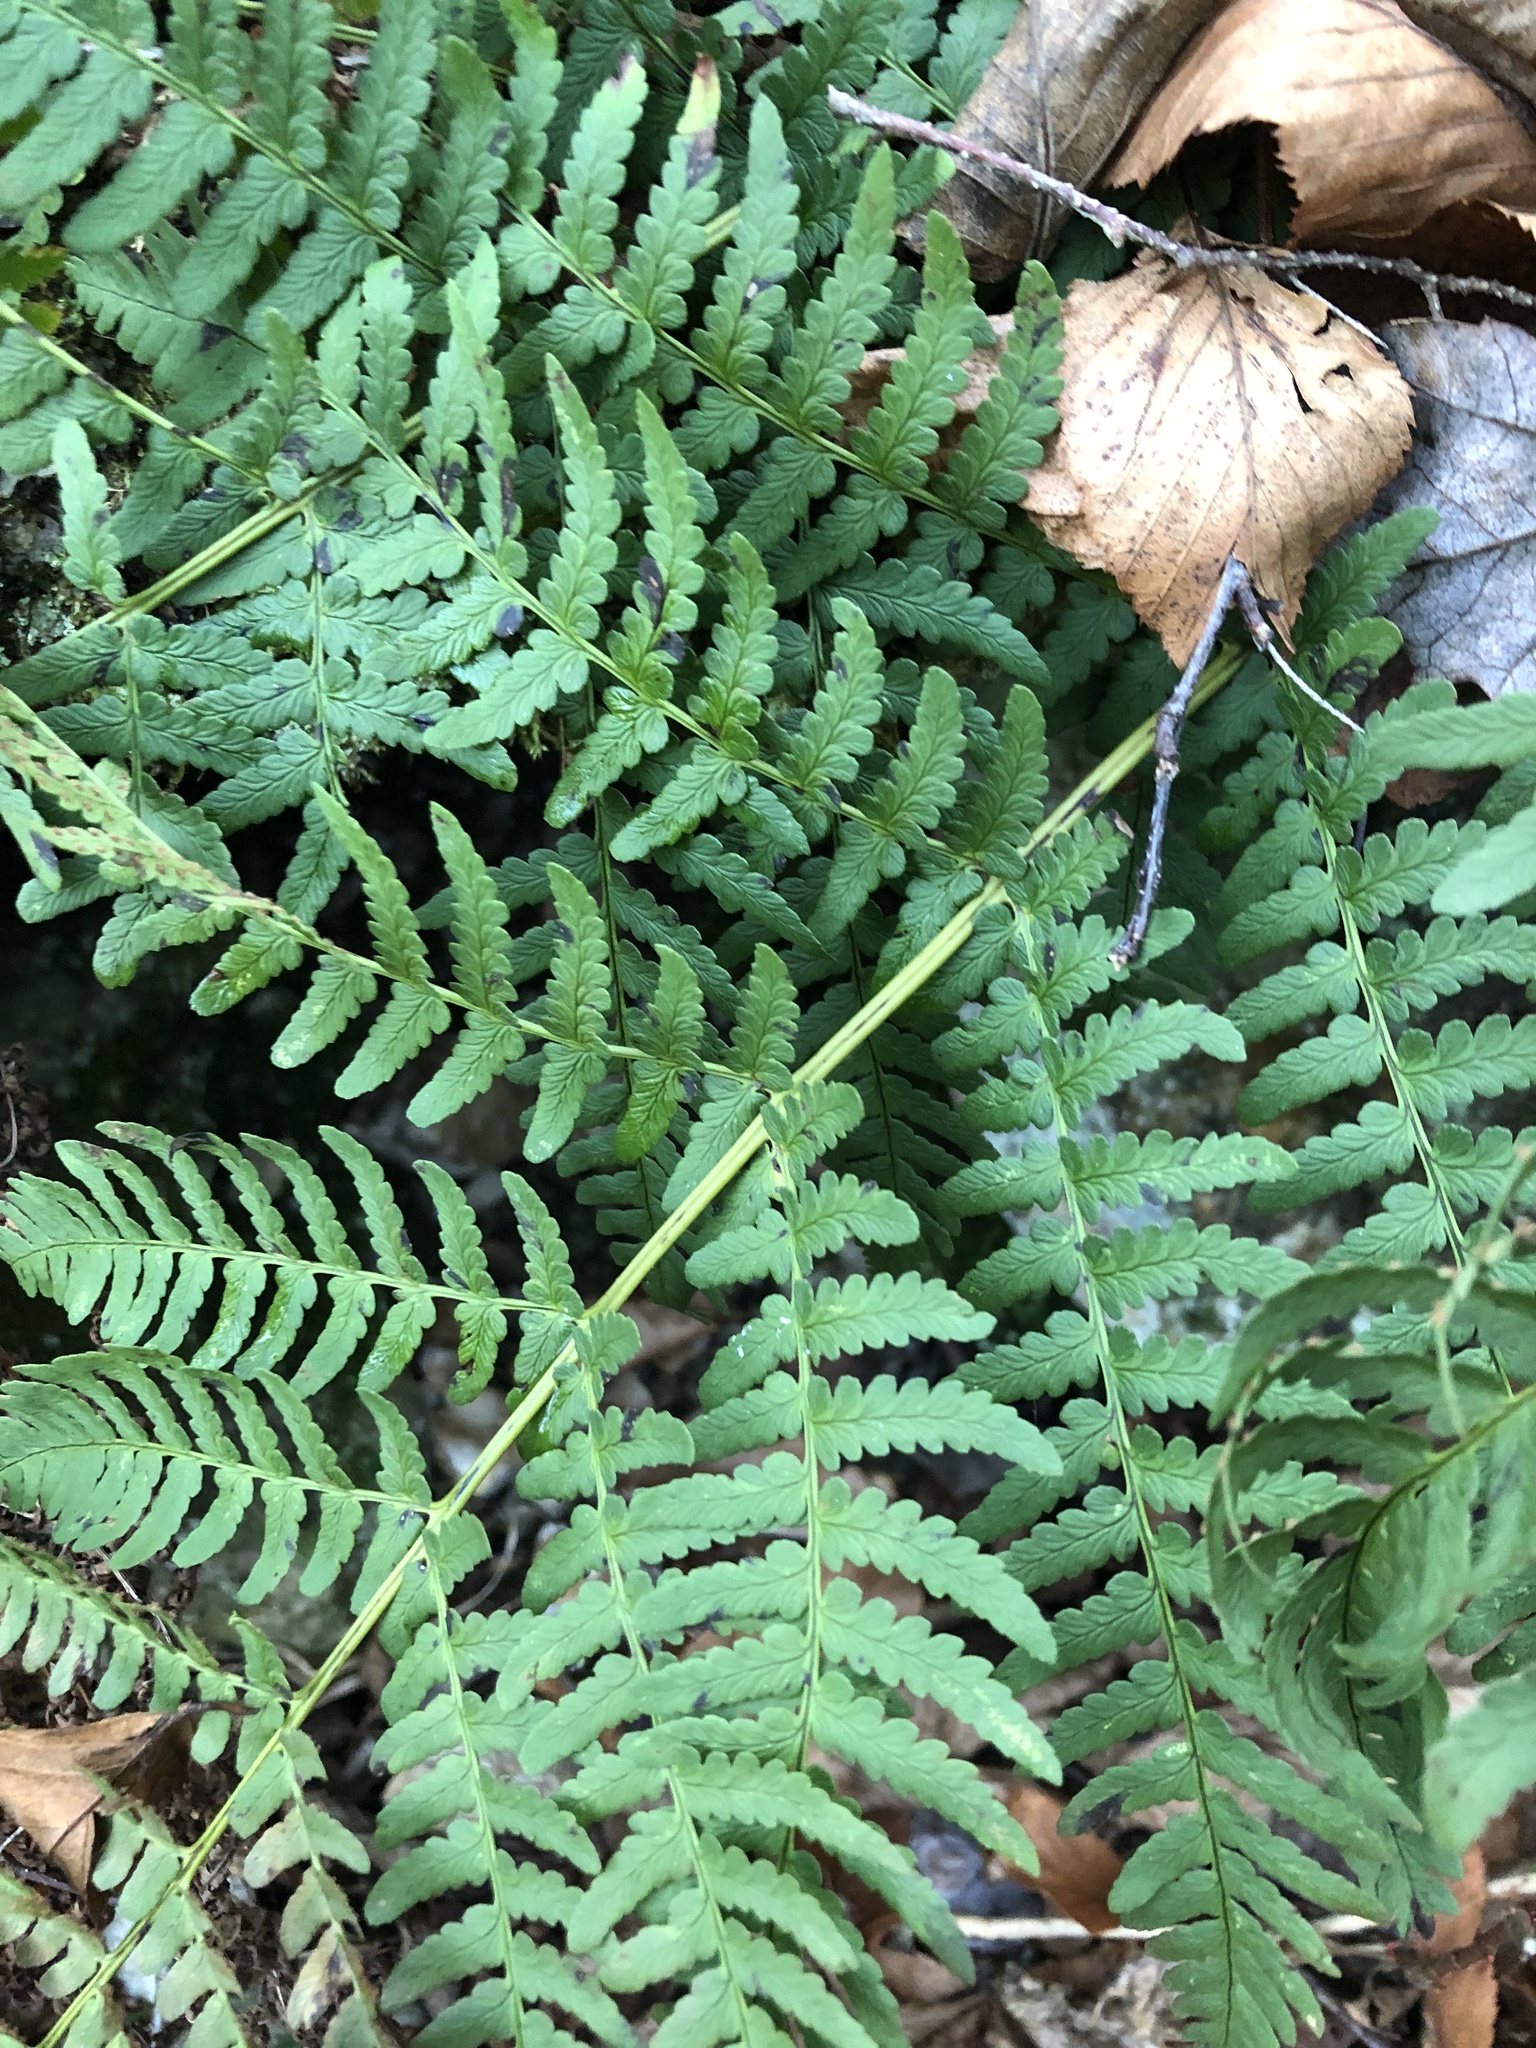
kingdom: Plantae
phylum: Tracheophyta
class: Polypodiopsida
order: Polypodiales
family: Dryopteridaceae
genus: Dryopteris
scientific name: Dryopteris marginalis
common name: Marginal wood fern
